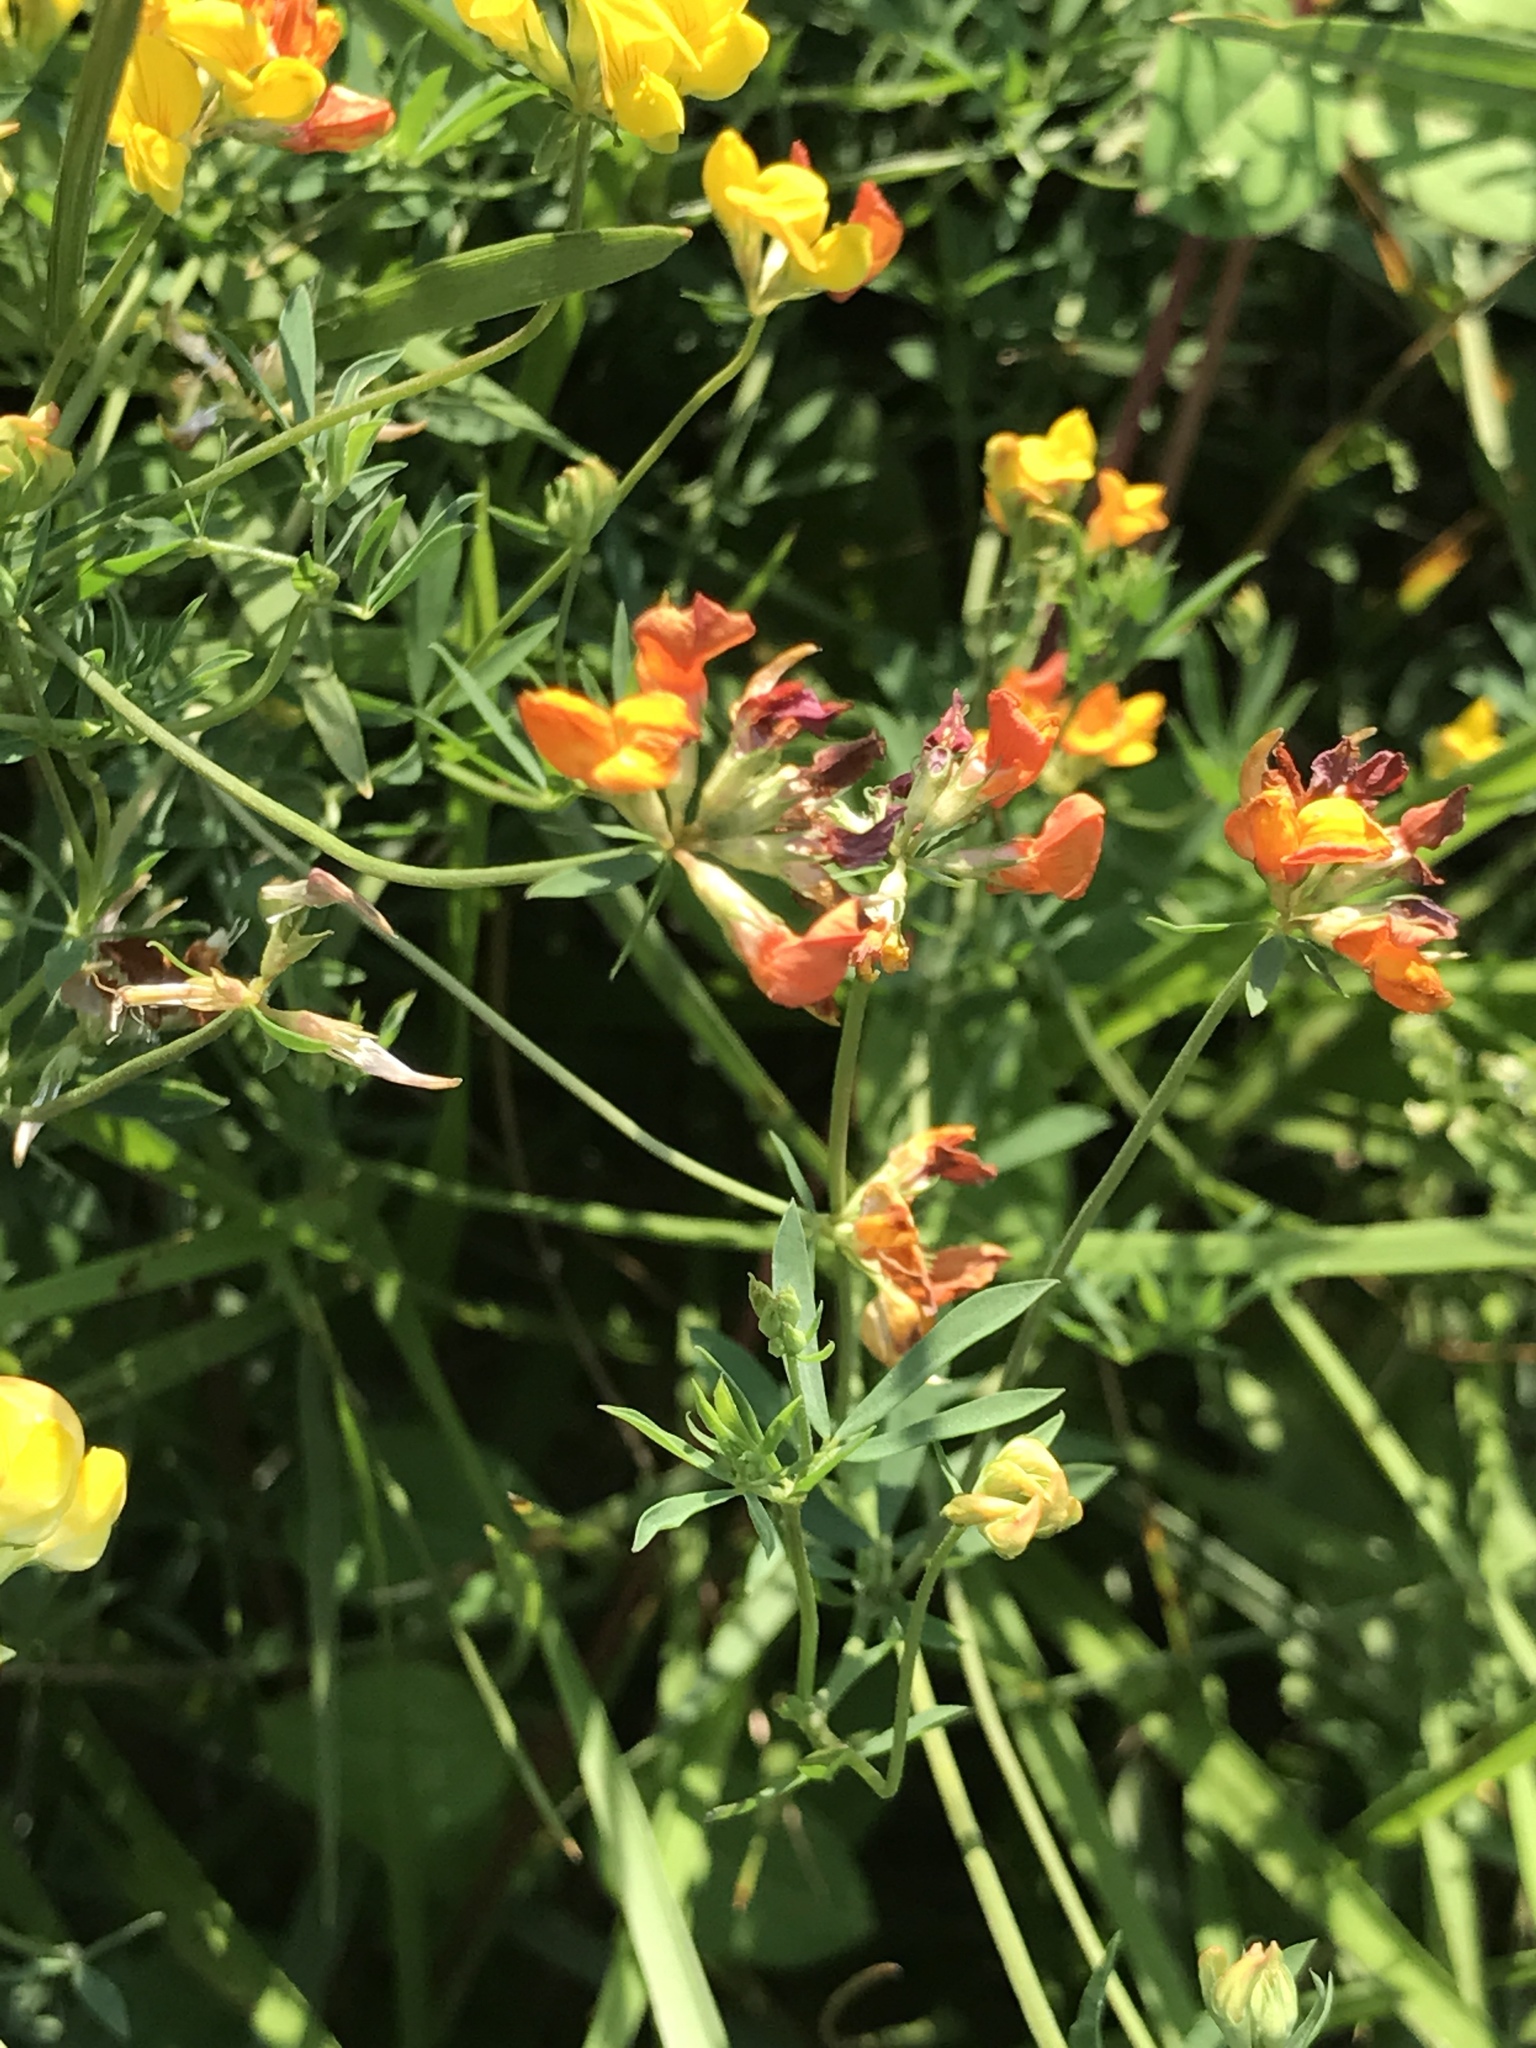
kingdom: Plantae
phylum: Tracheophyta
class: Magnoliopsida
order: Fabales
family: Fabaceae
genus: Lotus
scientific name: Lotus tenuis
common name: Narrow-leaved bird's-foot-trefoil
